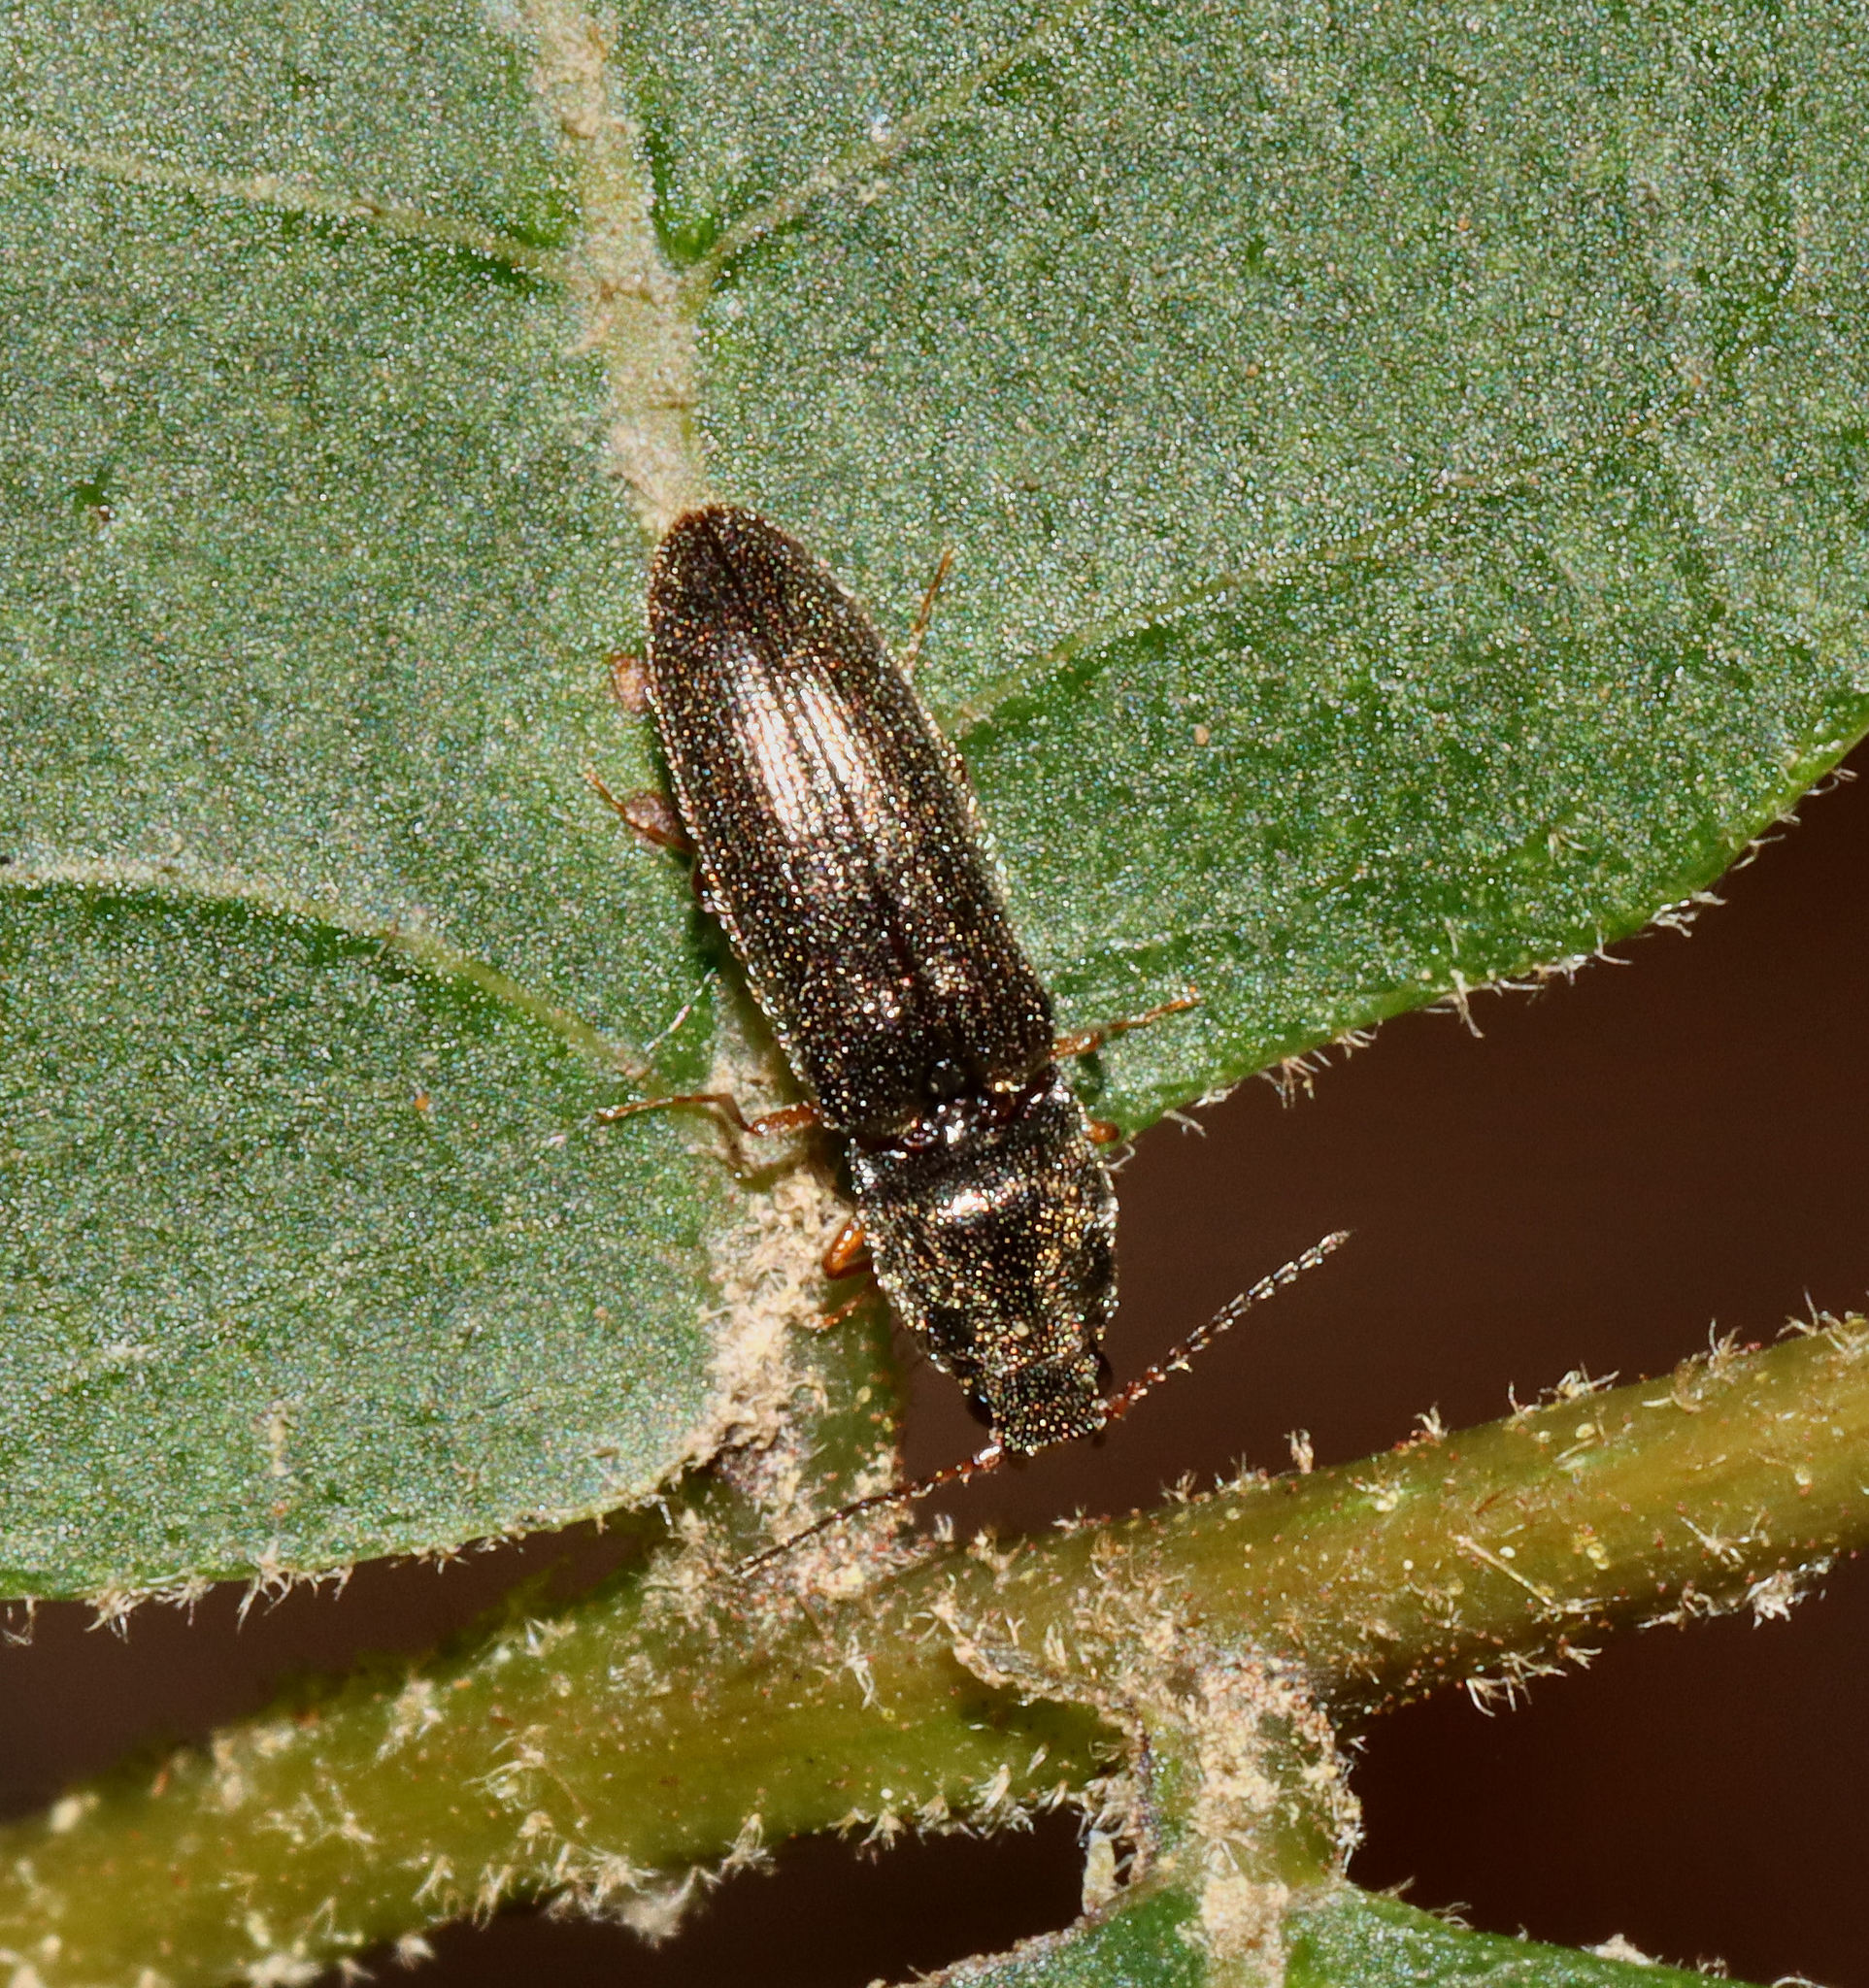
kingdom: Animalia
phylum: Arthropoda
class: Insecta
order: Coleoptera
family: Elateridae
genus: Limonius
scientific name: Limonius quercinus
